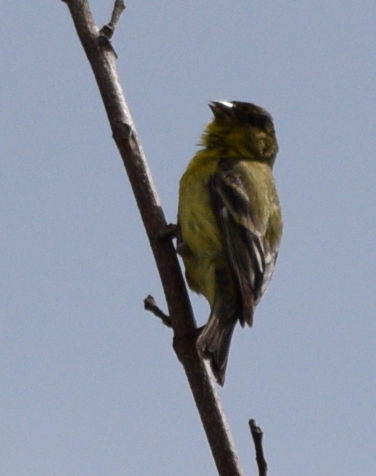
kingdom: Animalia
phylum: Chordata
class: Aves
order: Passeriformes
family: Fringillidae
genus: Spinus
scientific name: Spinus psaltria
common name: Lesser goldfinch
